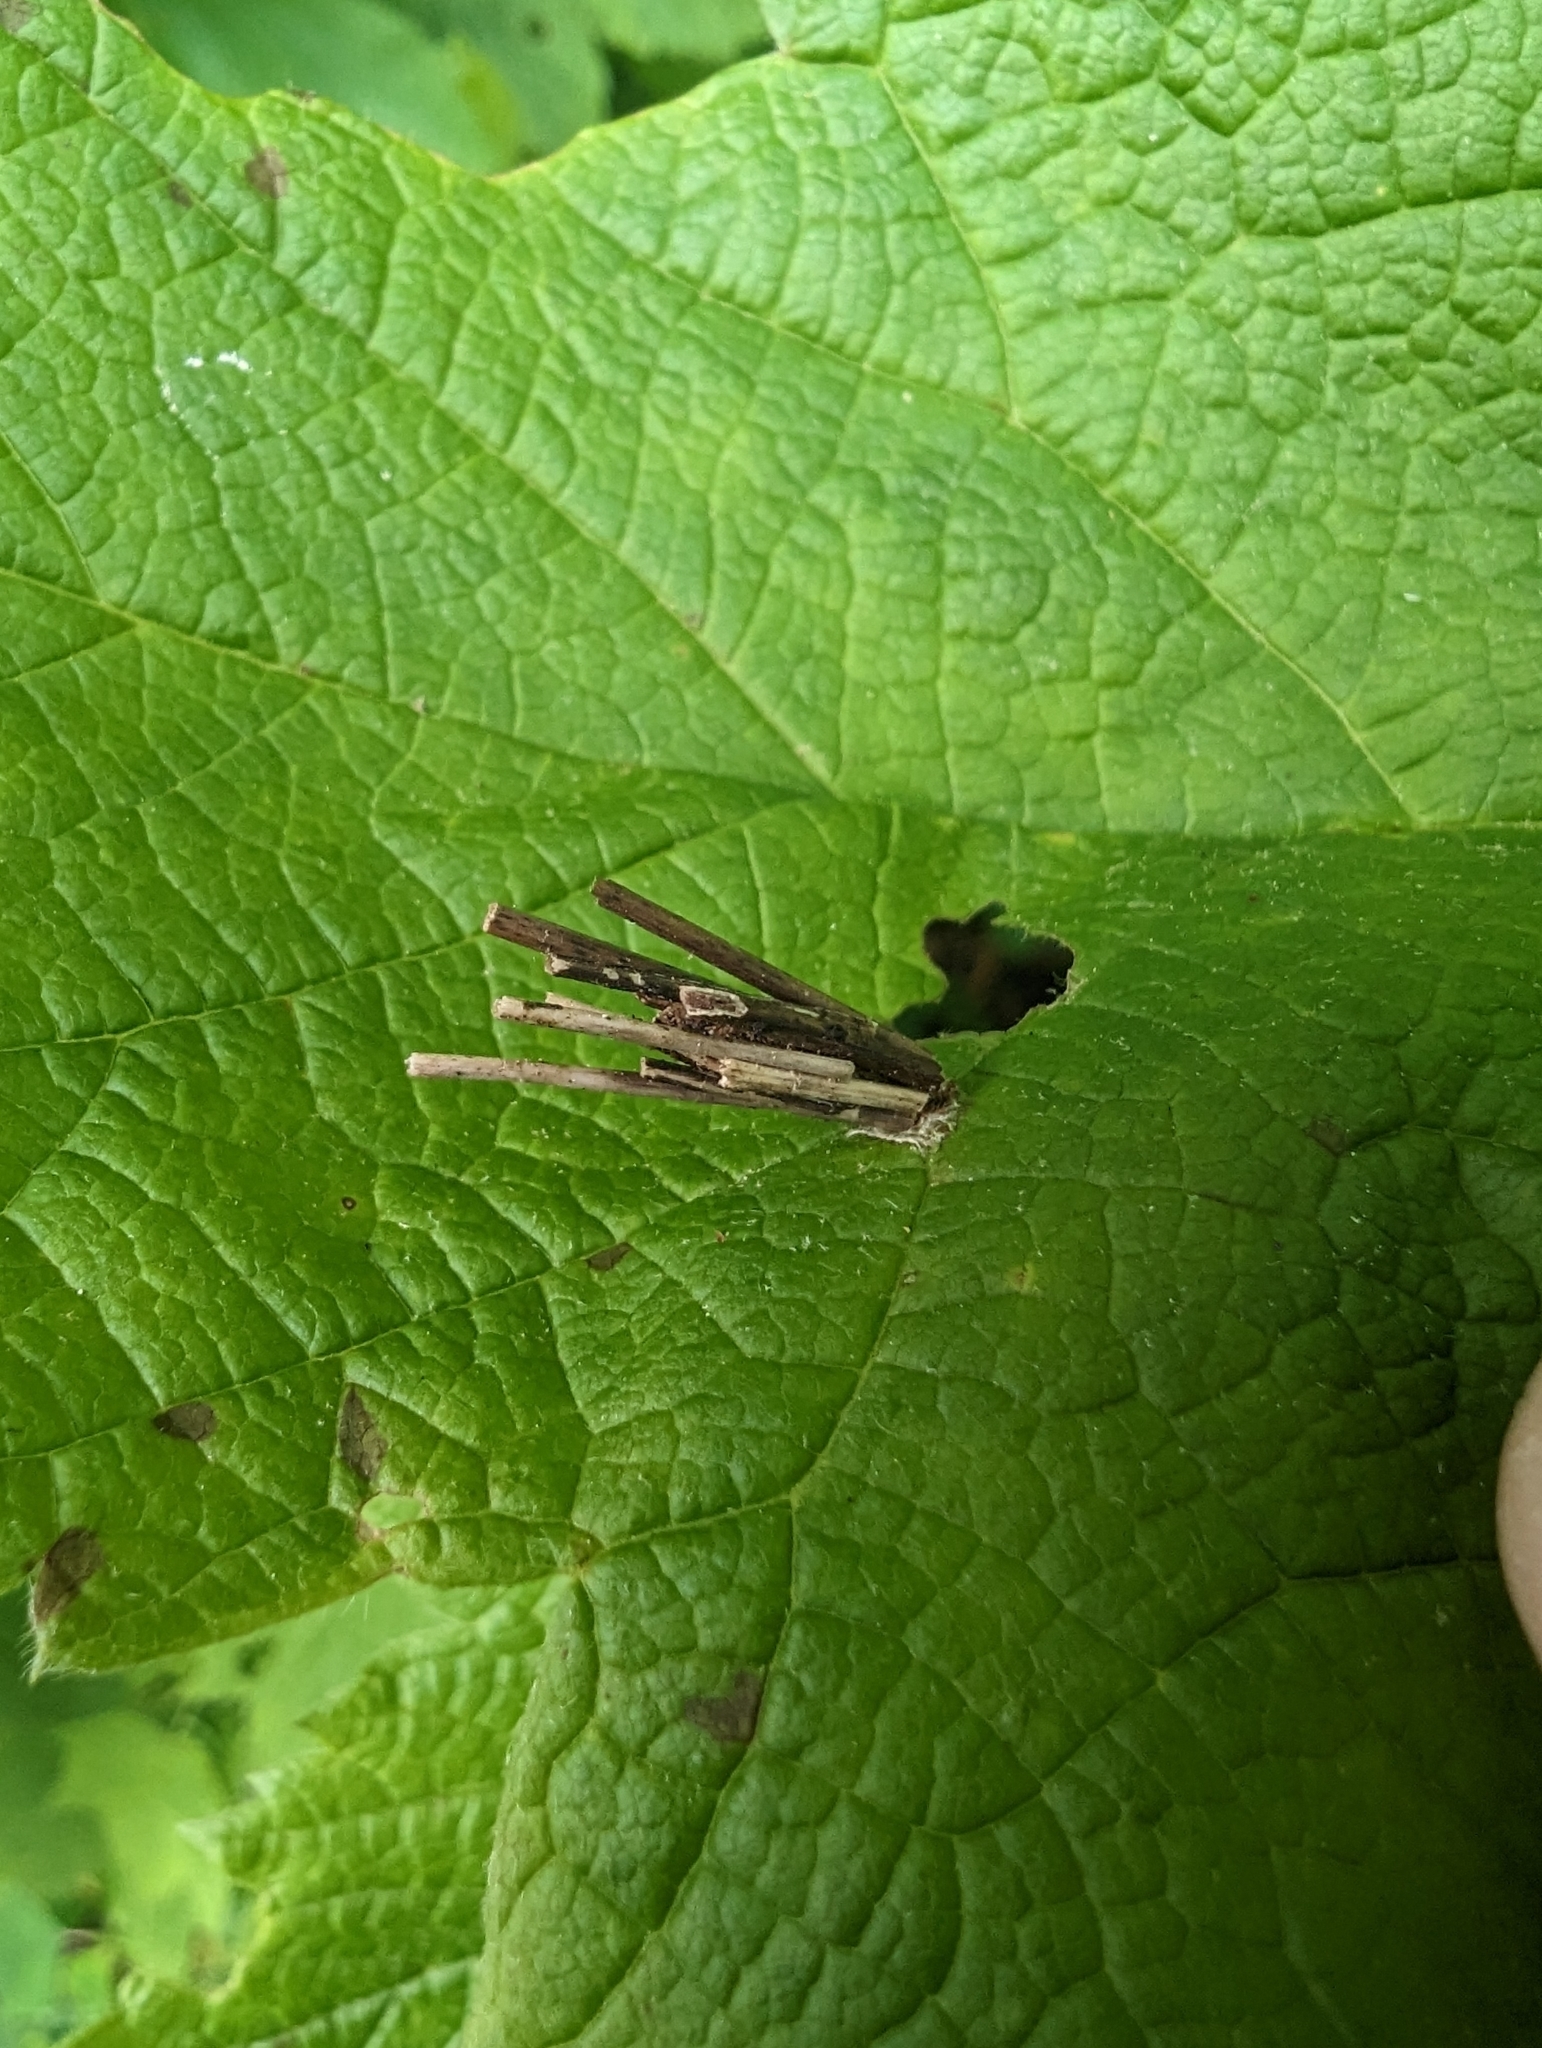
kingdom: Animalia
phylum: Arthropoda
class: Insecta
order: Lepidoptera
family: Psychidae
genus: Psyche
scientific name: Psyche casta
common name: Common sweep
